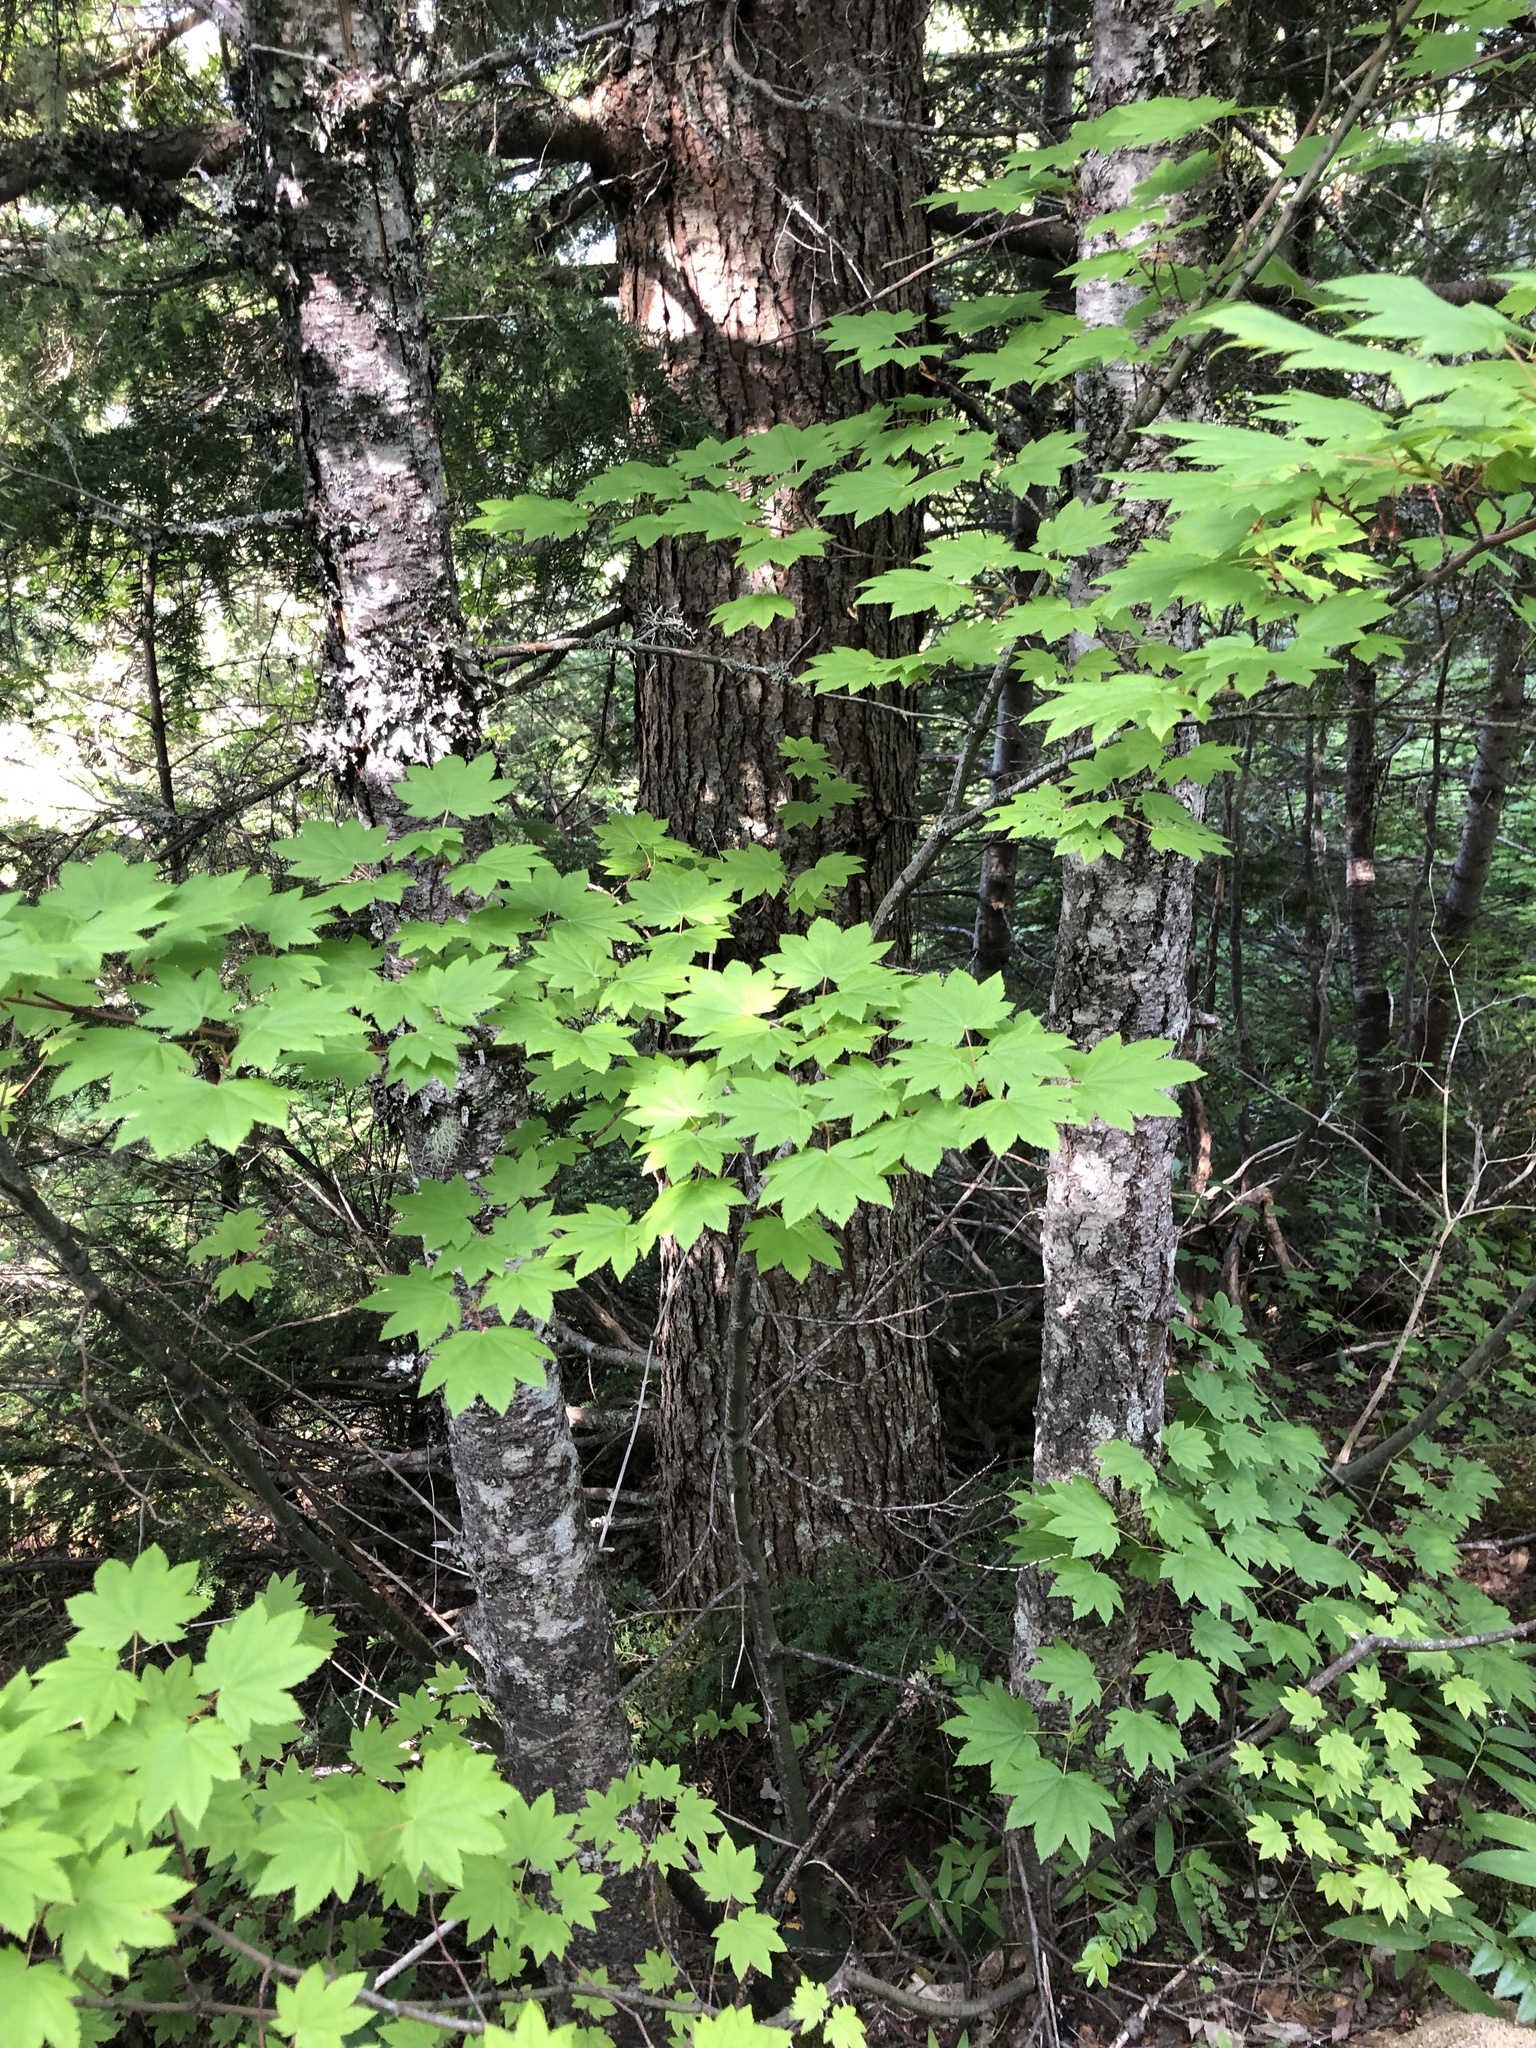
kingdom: Plantae
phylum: Tracheophyta
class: Magnoliopsida
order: Sapindales
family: Sapindaceae
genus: Acer
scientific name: Acer circinatum
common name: Vine maple
